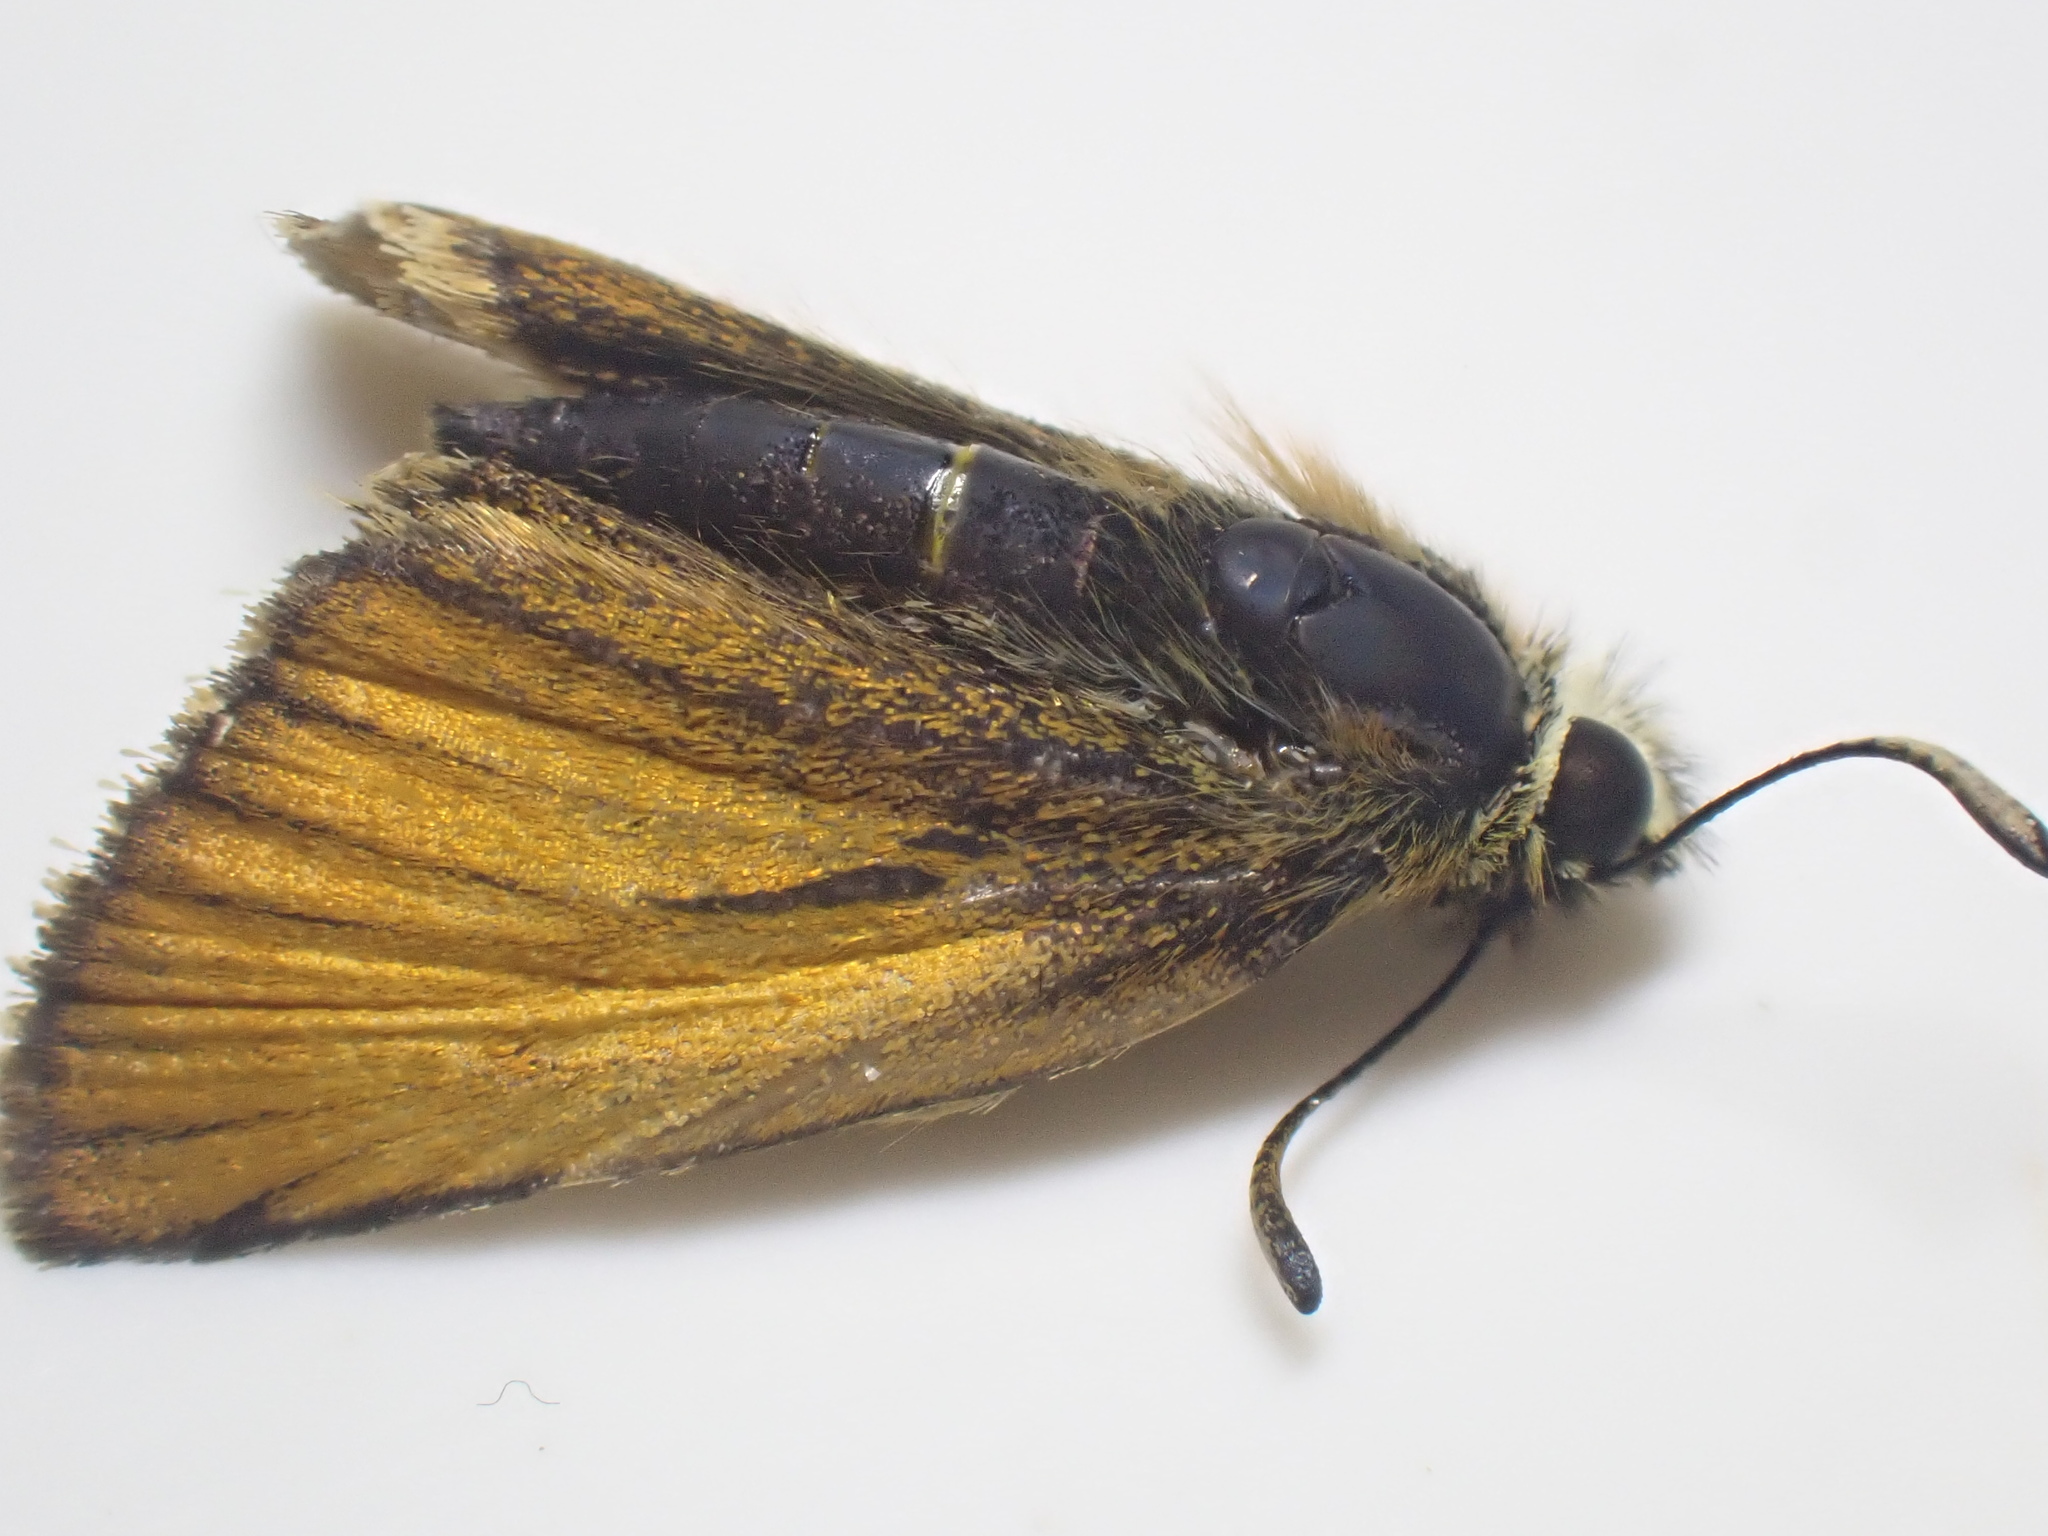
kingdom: Animalia
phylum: Arthropoda
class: Insecta
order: Lepidoptera
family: Hesperiidae
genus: Thymelicus
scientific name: Thymelicus lineola
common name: Essex skipper
